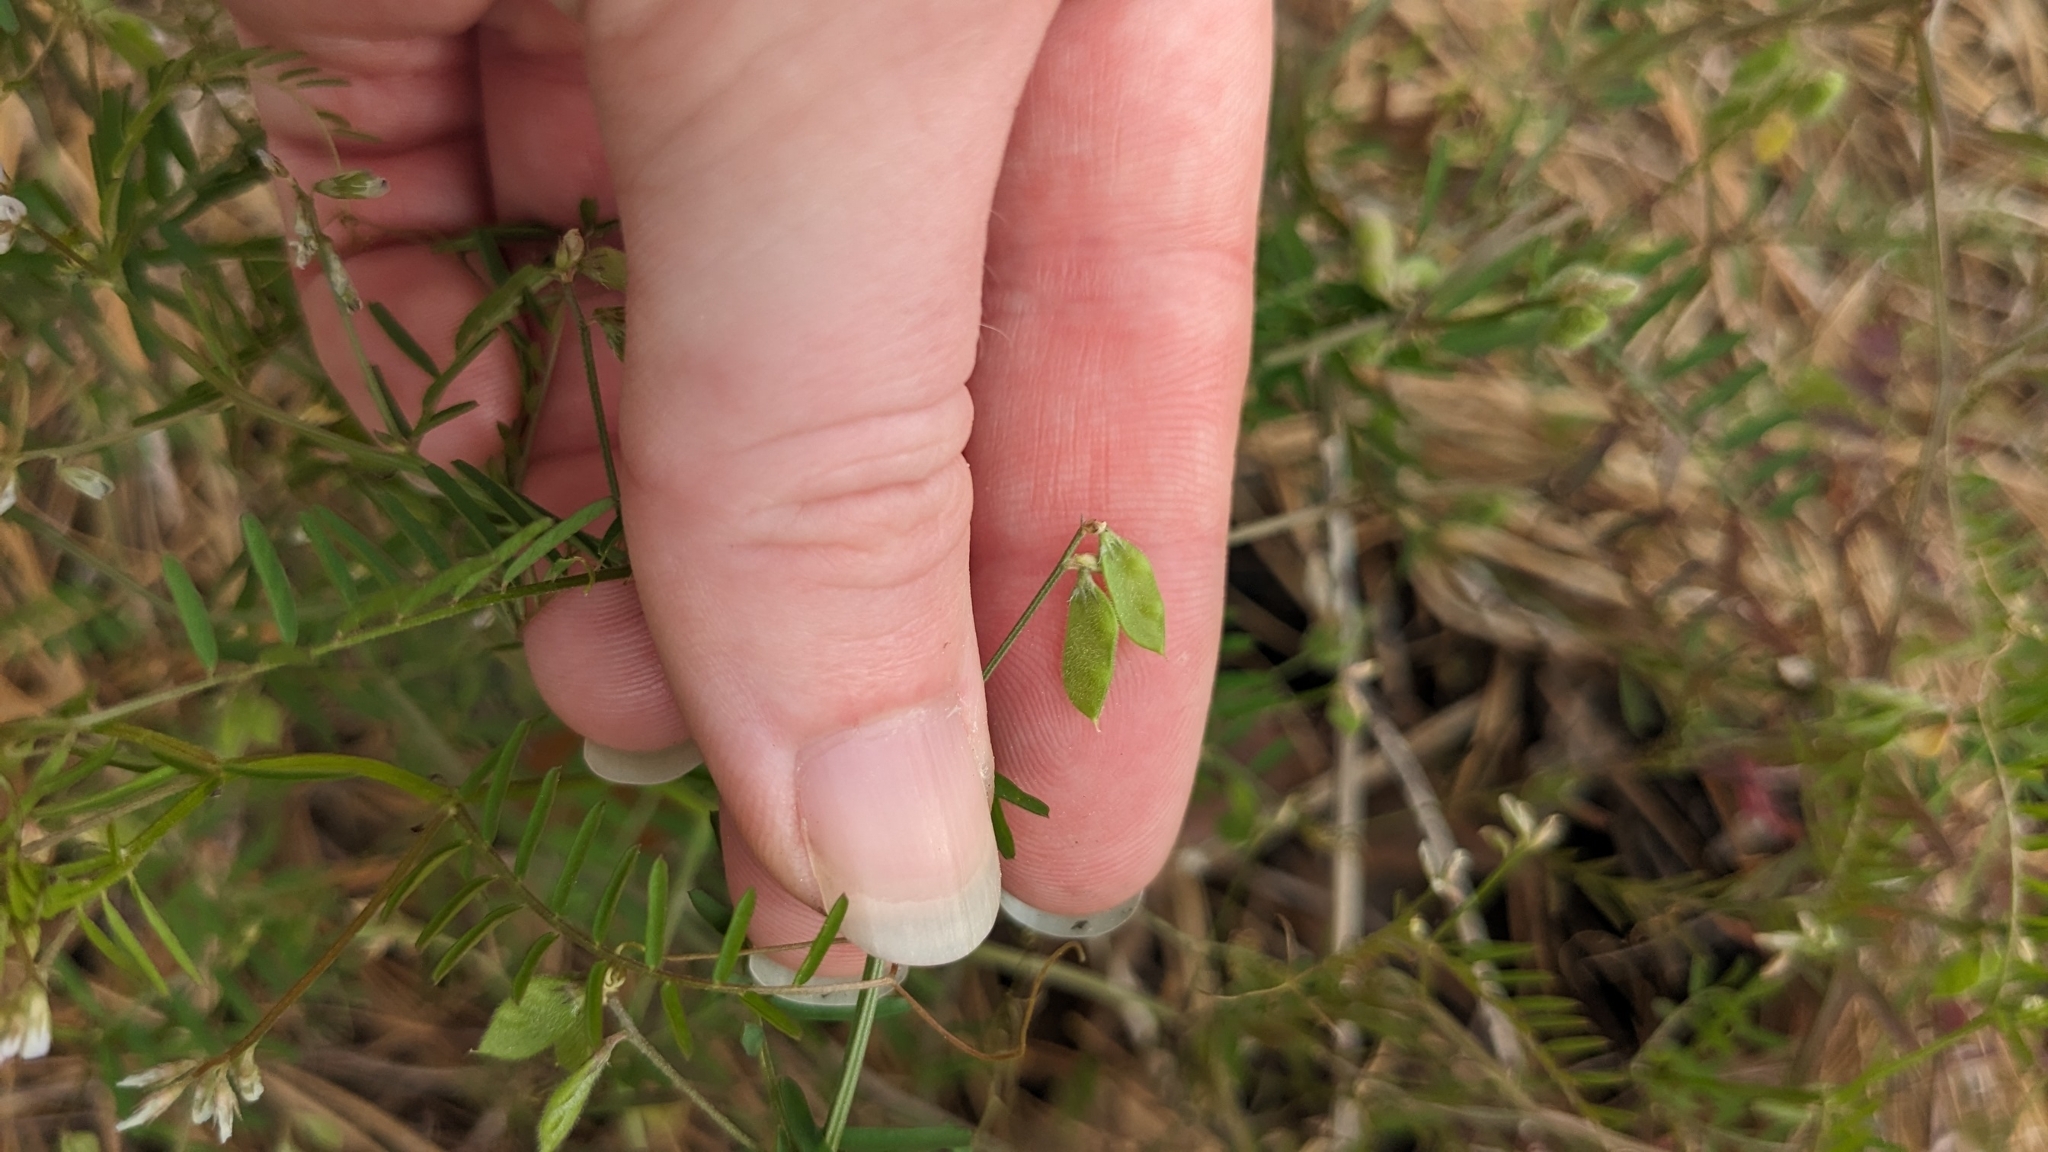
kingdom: Plantae
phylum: Tracheophyta
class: Magnoliopsida
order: Fabales
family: Fabaceae
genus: Vicia
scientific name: Vicia hirsuta
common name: Tiny vetch
